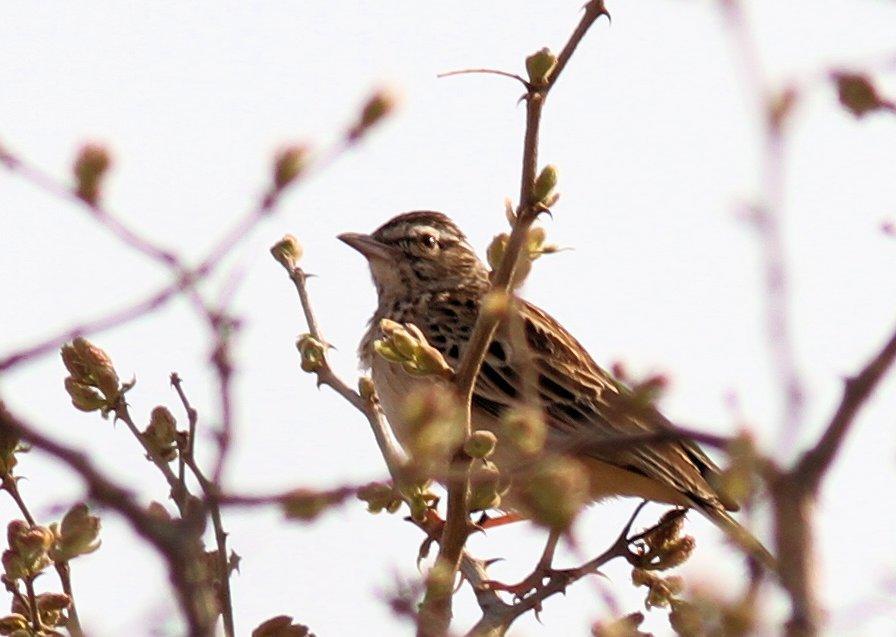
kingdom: Animalia
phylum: Chordata
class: Aves
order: Passeriformes
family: Alaudidae
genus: Calendulauda
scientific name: Calendulauda sabota
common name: Sabota lark
